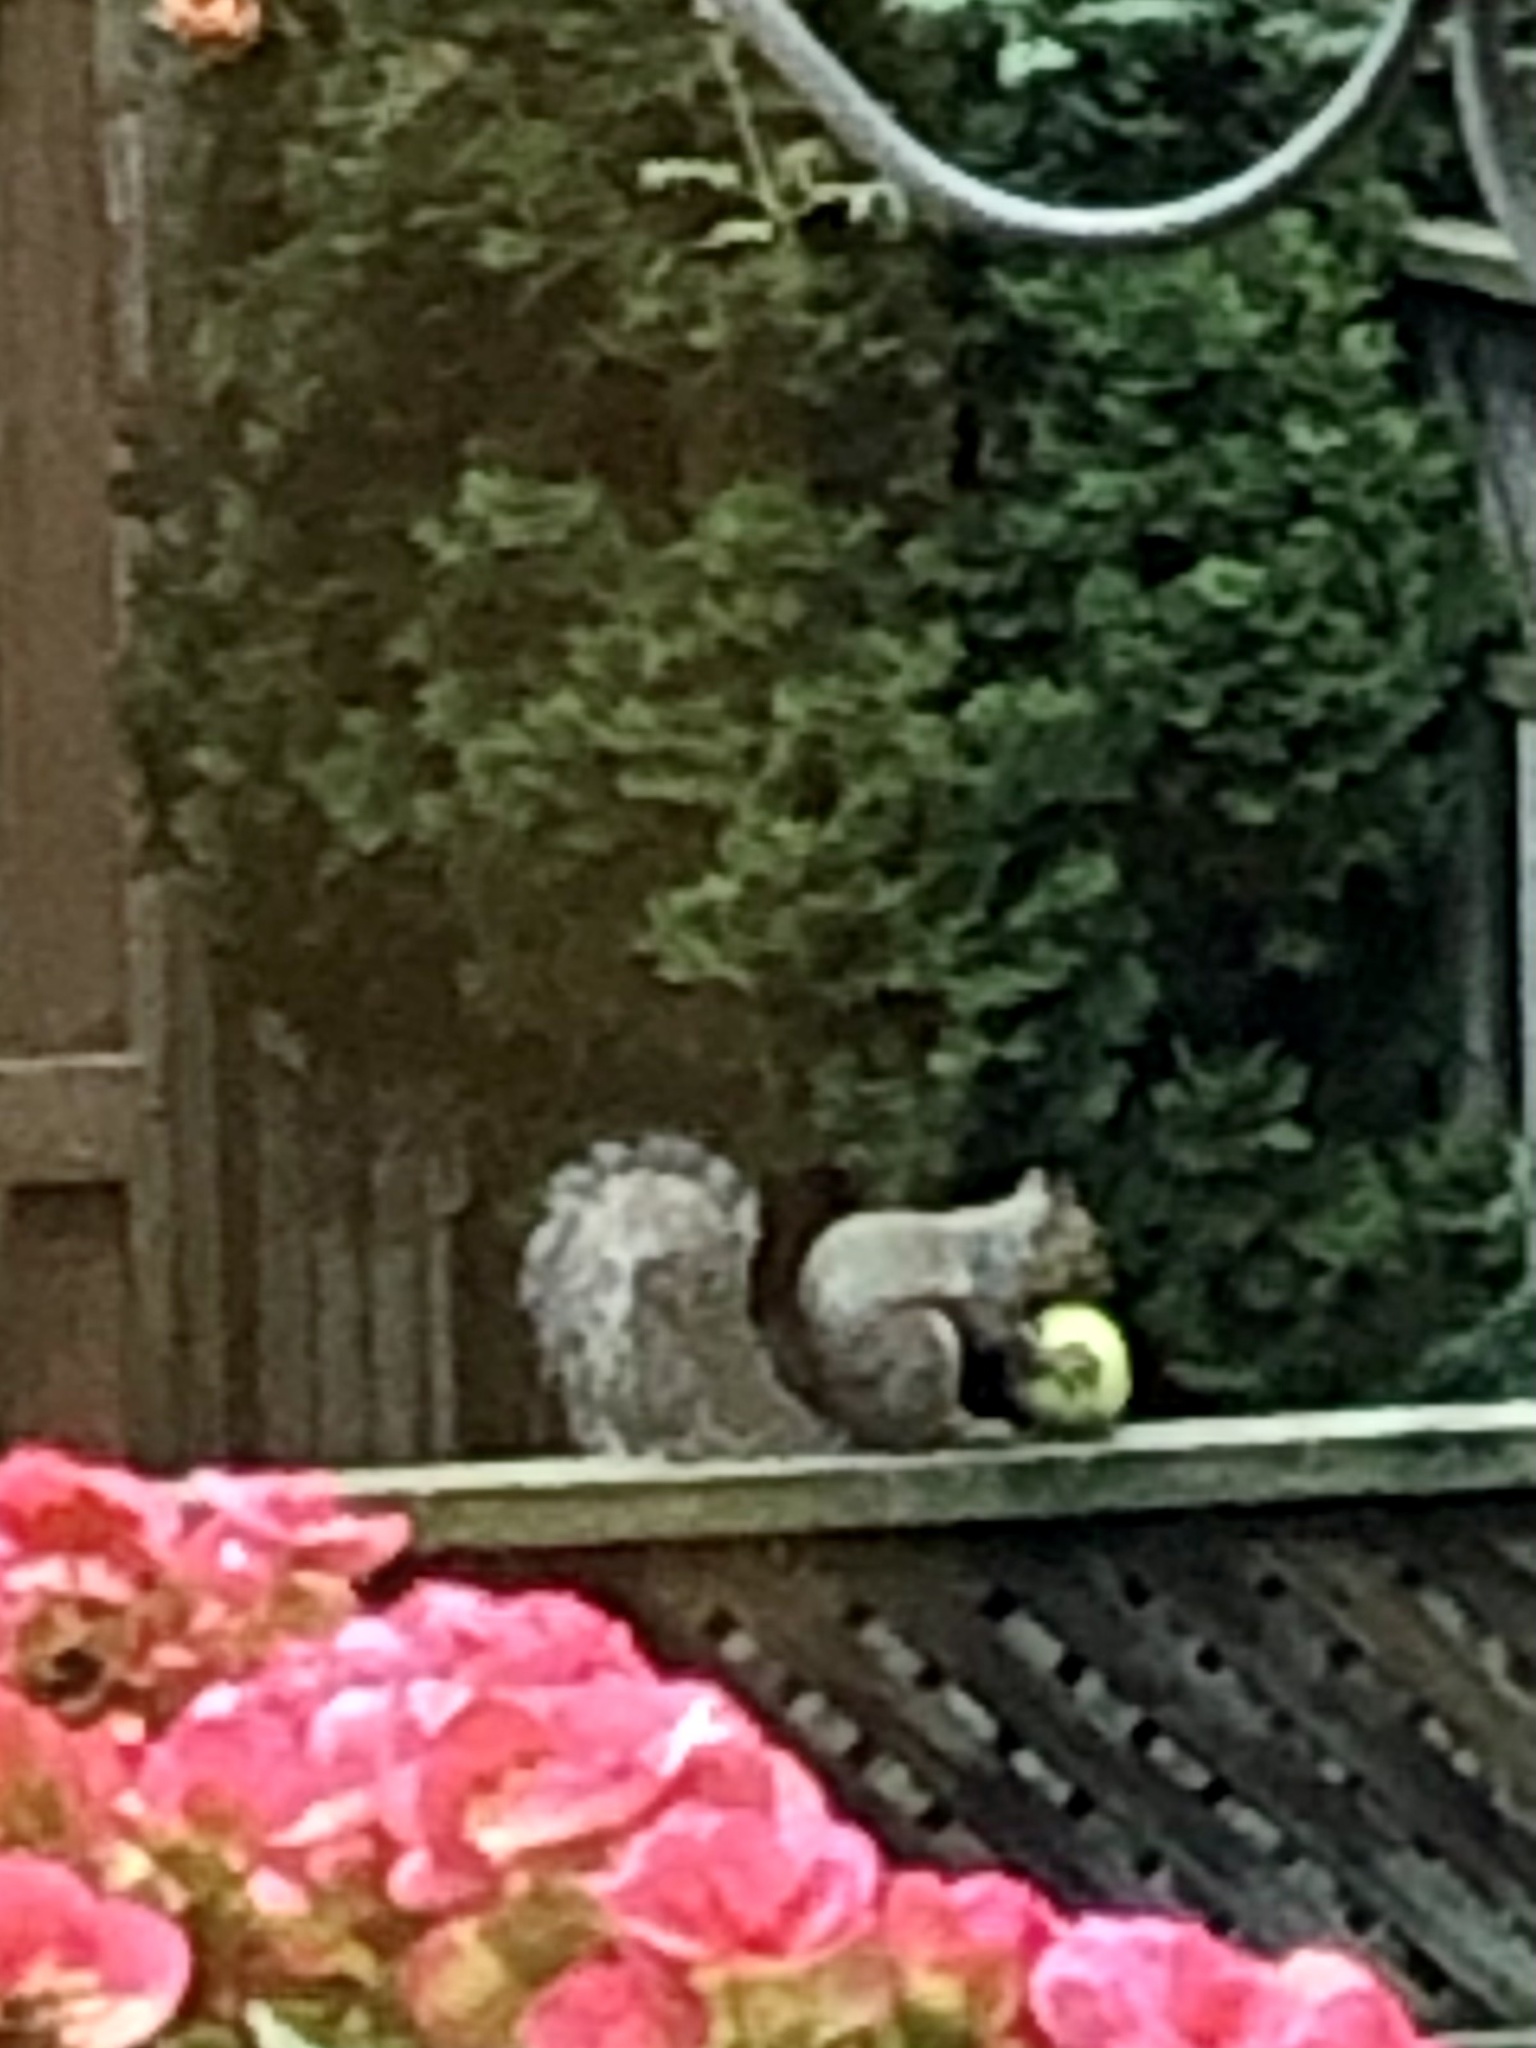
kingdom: Animalia
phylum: Chordata
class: Mammalia
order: Rodentia
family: Sciuridae
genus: Sciurus
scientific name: Sciurus carolinensis
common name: Eastern gray squirrel
